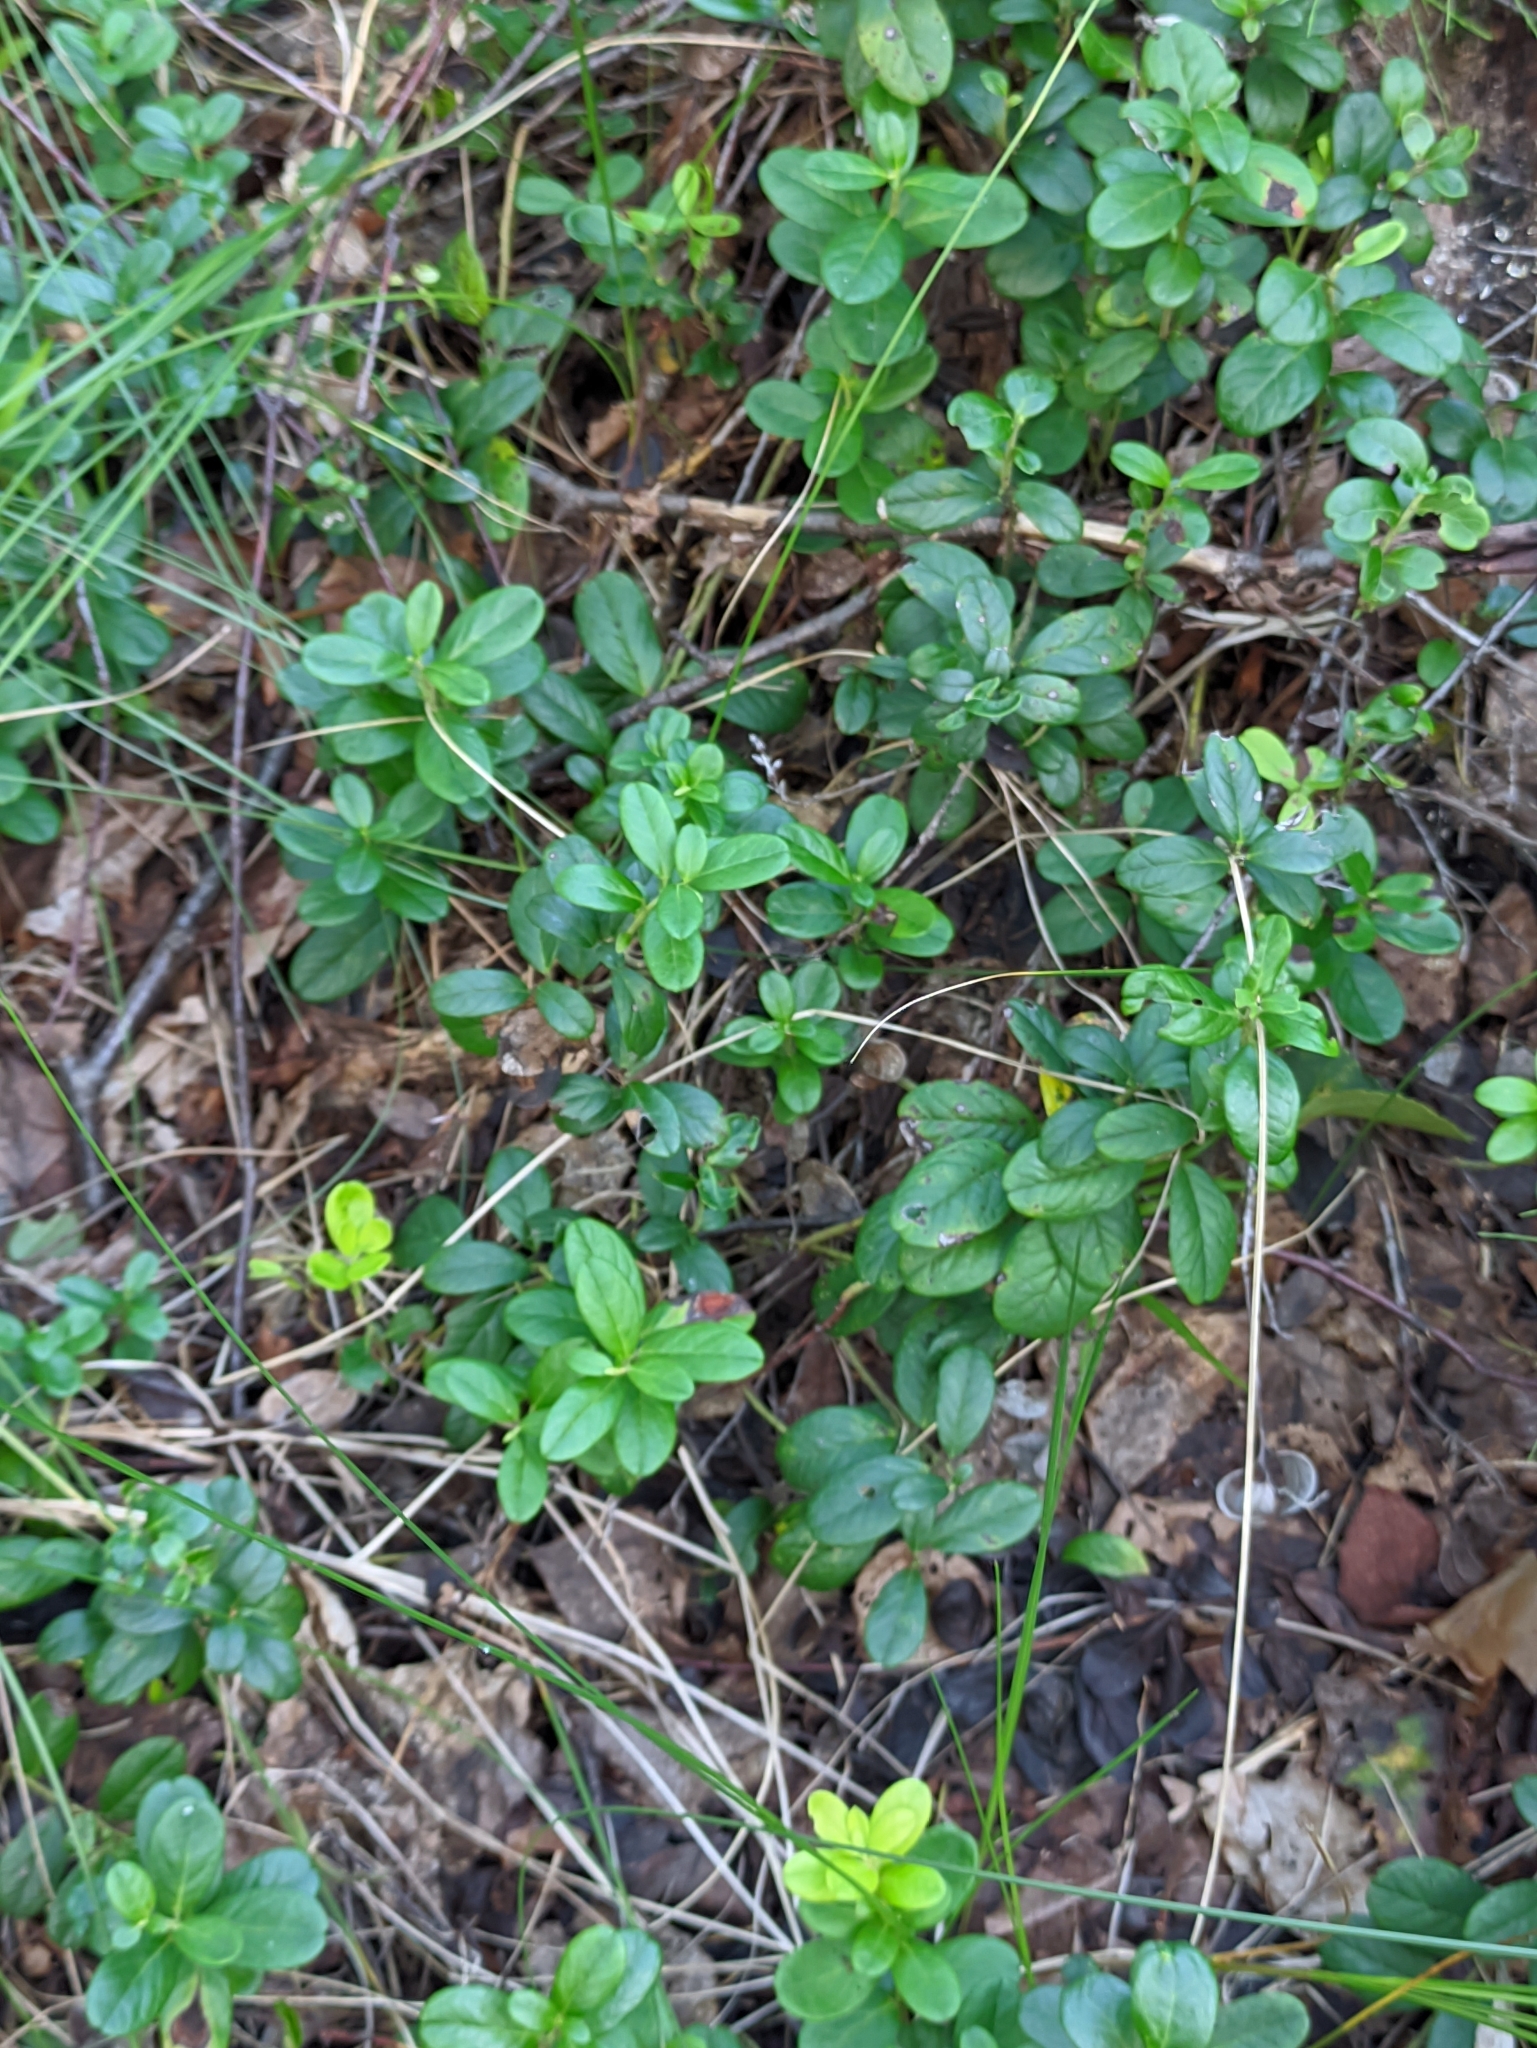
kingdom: Plantae
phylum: Tracheophyta
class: Magnoliopsida
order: Ericales
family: Ericaceae
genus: Vaccinium
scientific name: Vaccinium vitis-idaea
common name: Cowberry
